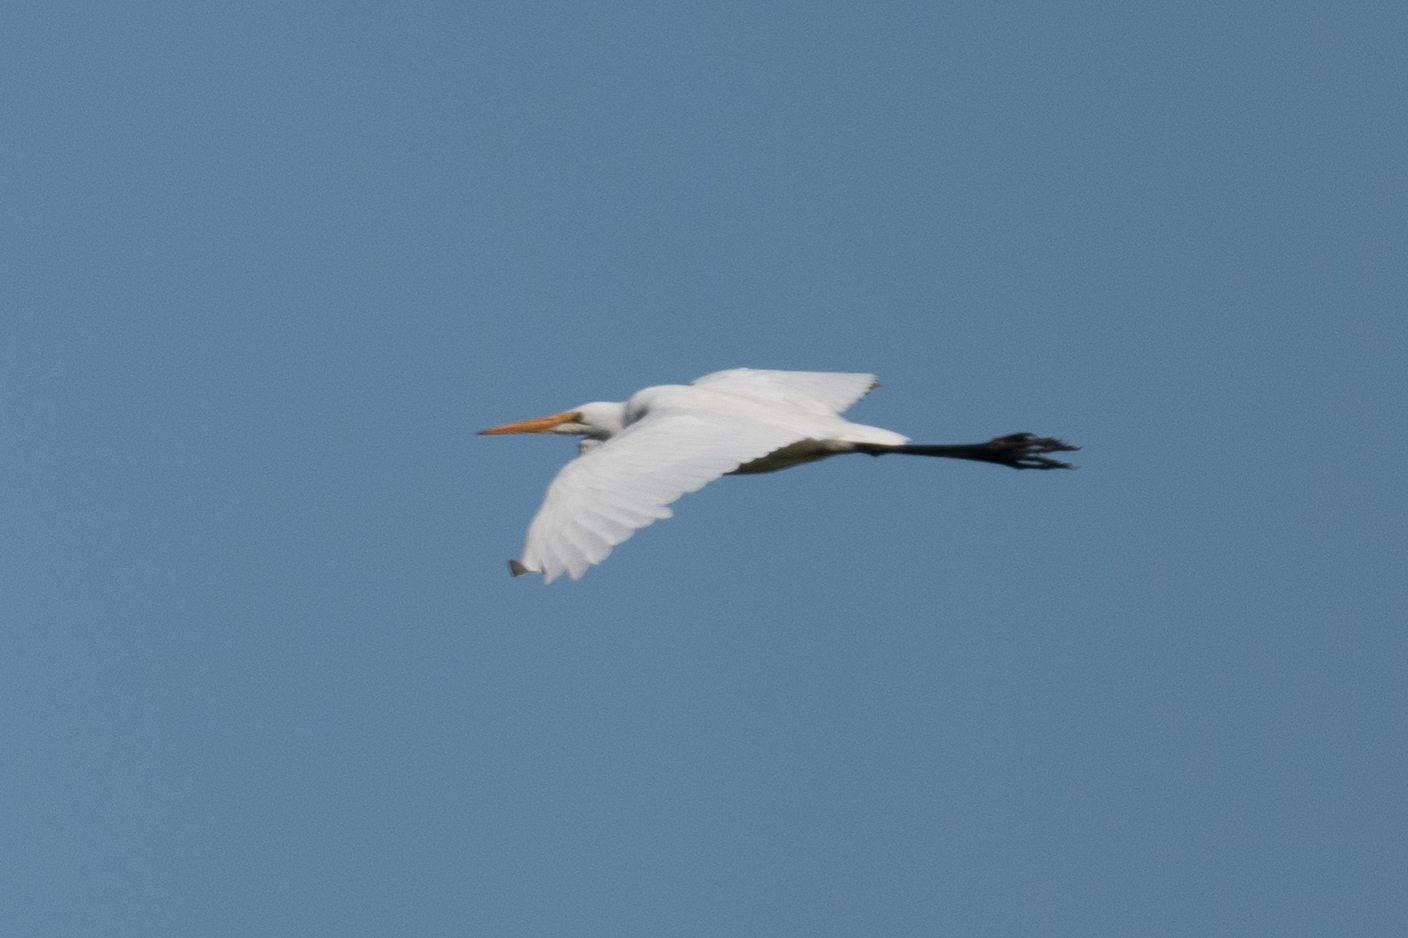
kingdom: Animalia
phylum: Chordata
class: Aves
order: Pelecaniformes
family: Ardeidae
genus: Ardea
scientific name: Ardea alba
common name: Great egret
